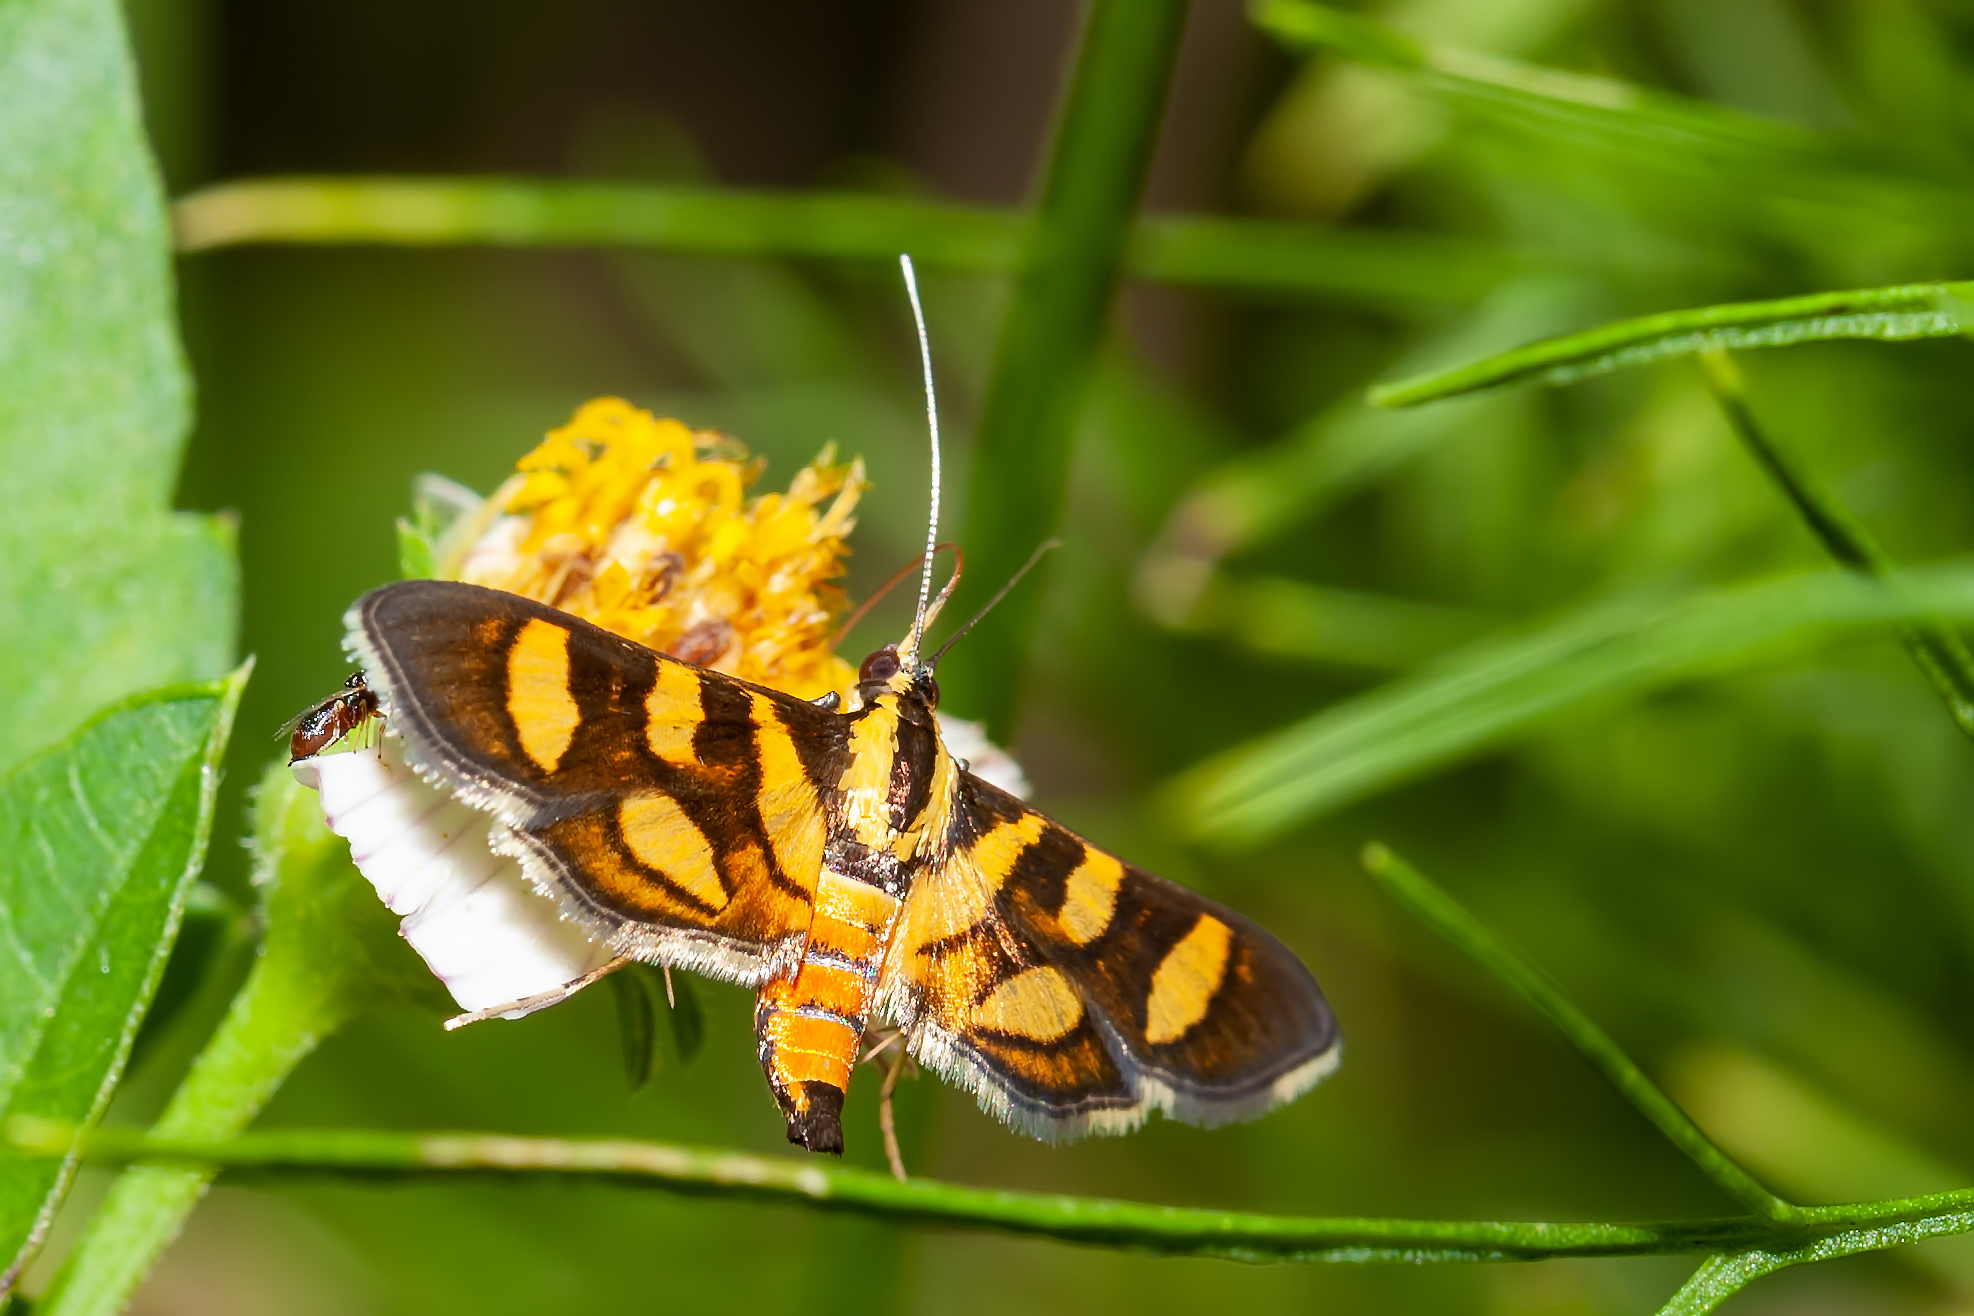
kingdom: Animalia
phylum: Arthropoda
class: Insecta
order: Lepidoptera
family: Crambidae
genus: Syngamia
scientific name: Syngamia florella
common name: Orange-spotted flower moth
